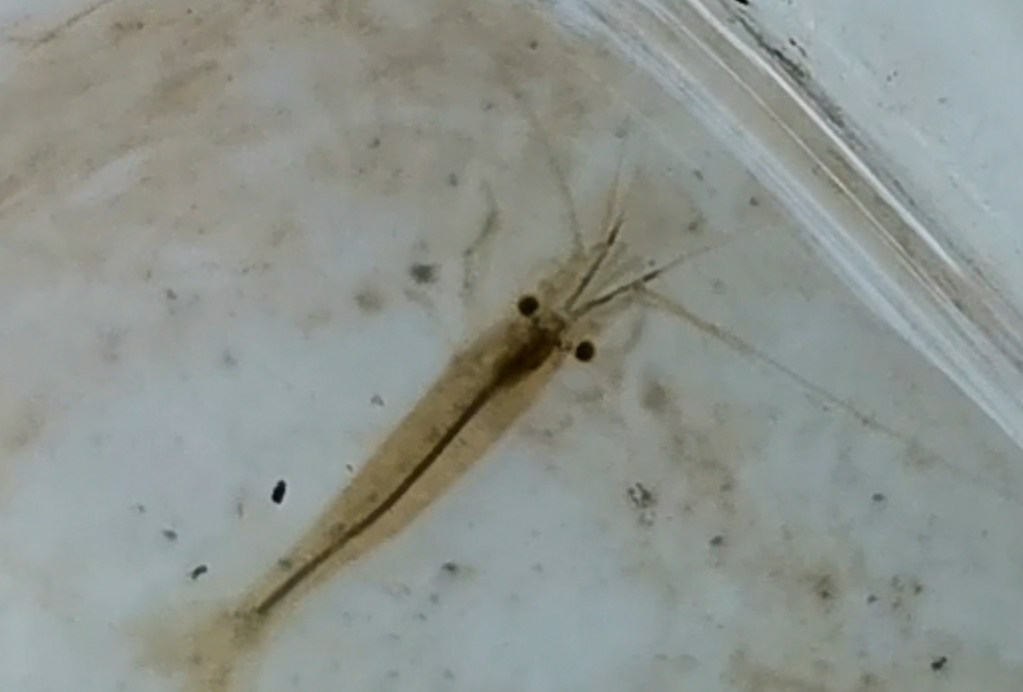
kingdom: Animalia
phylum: Arthropoda
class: Malacostraca
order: Decapoda
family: Atyidae
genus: Atyaephyra
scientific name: Atyaephyra desmarestii
